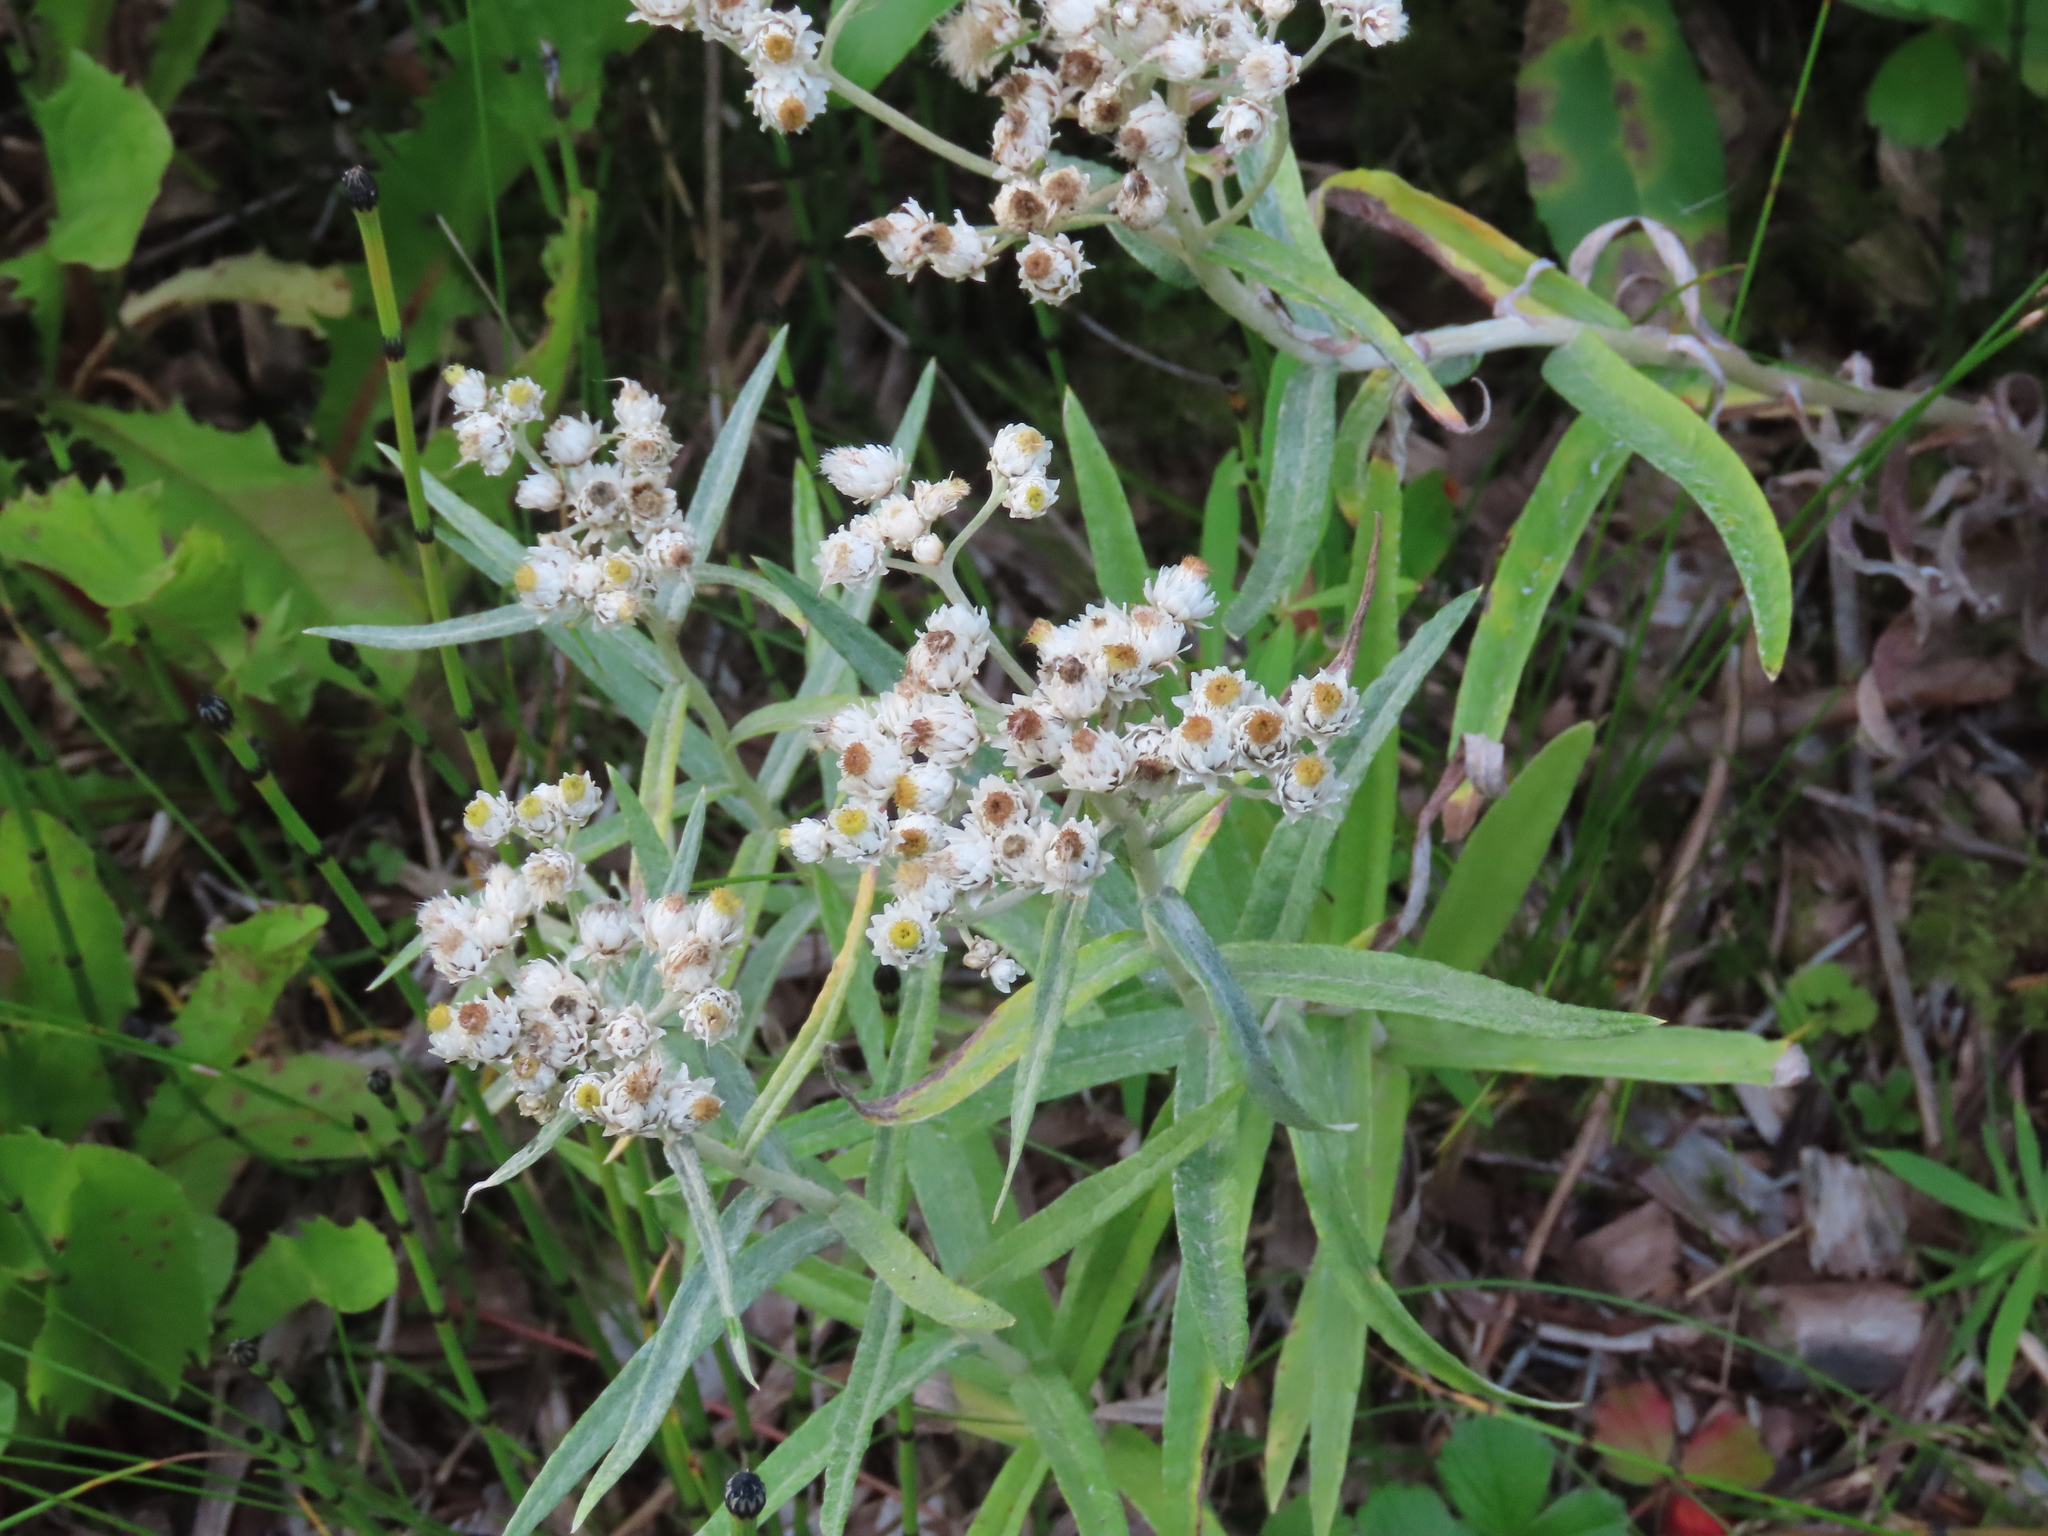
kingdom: Plantae
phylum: Tracheophyta
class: Magnoliopsida
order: Asterales
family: Asteraceae
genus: Anaphalis
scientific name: Anaphalis margaritacea
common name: Pearly everlasting
